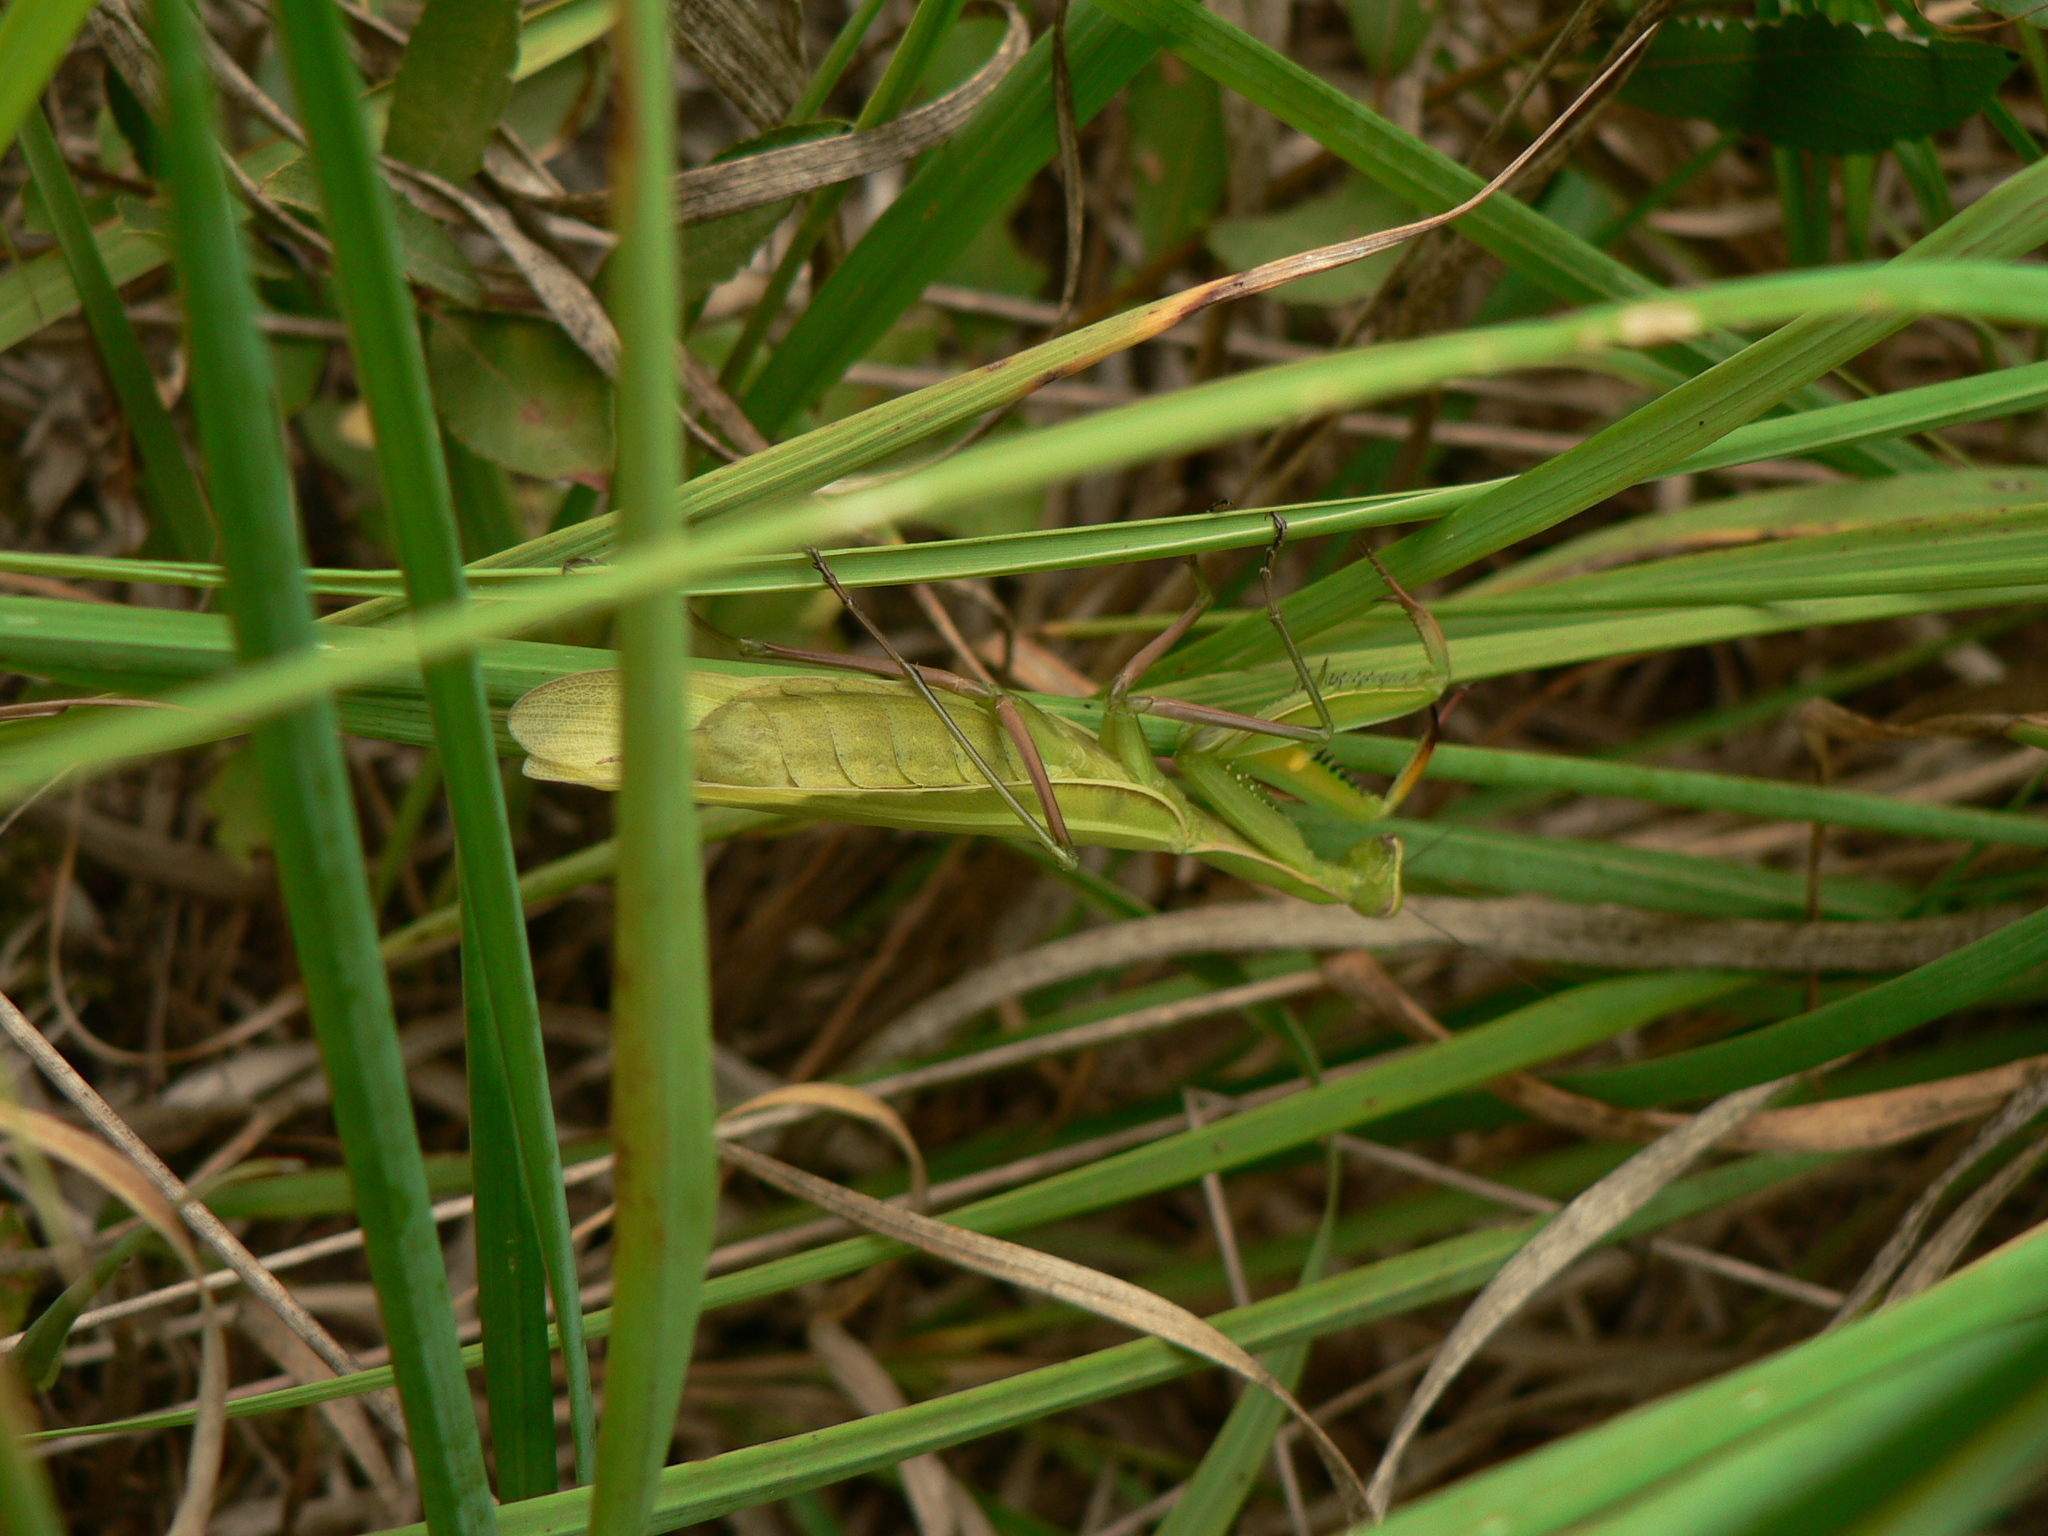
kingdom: Animalia
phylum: Arthropoda
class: Insecta
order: Mantodea
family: Mantidae
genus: Mantis
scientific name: Mantis religiosa
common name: Praying mantis
